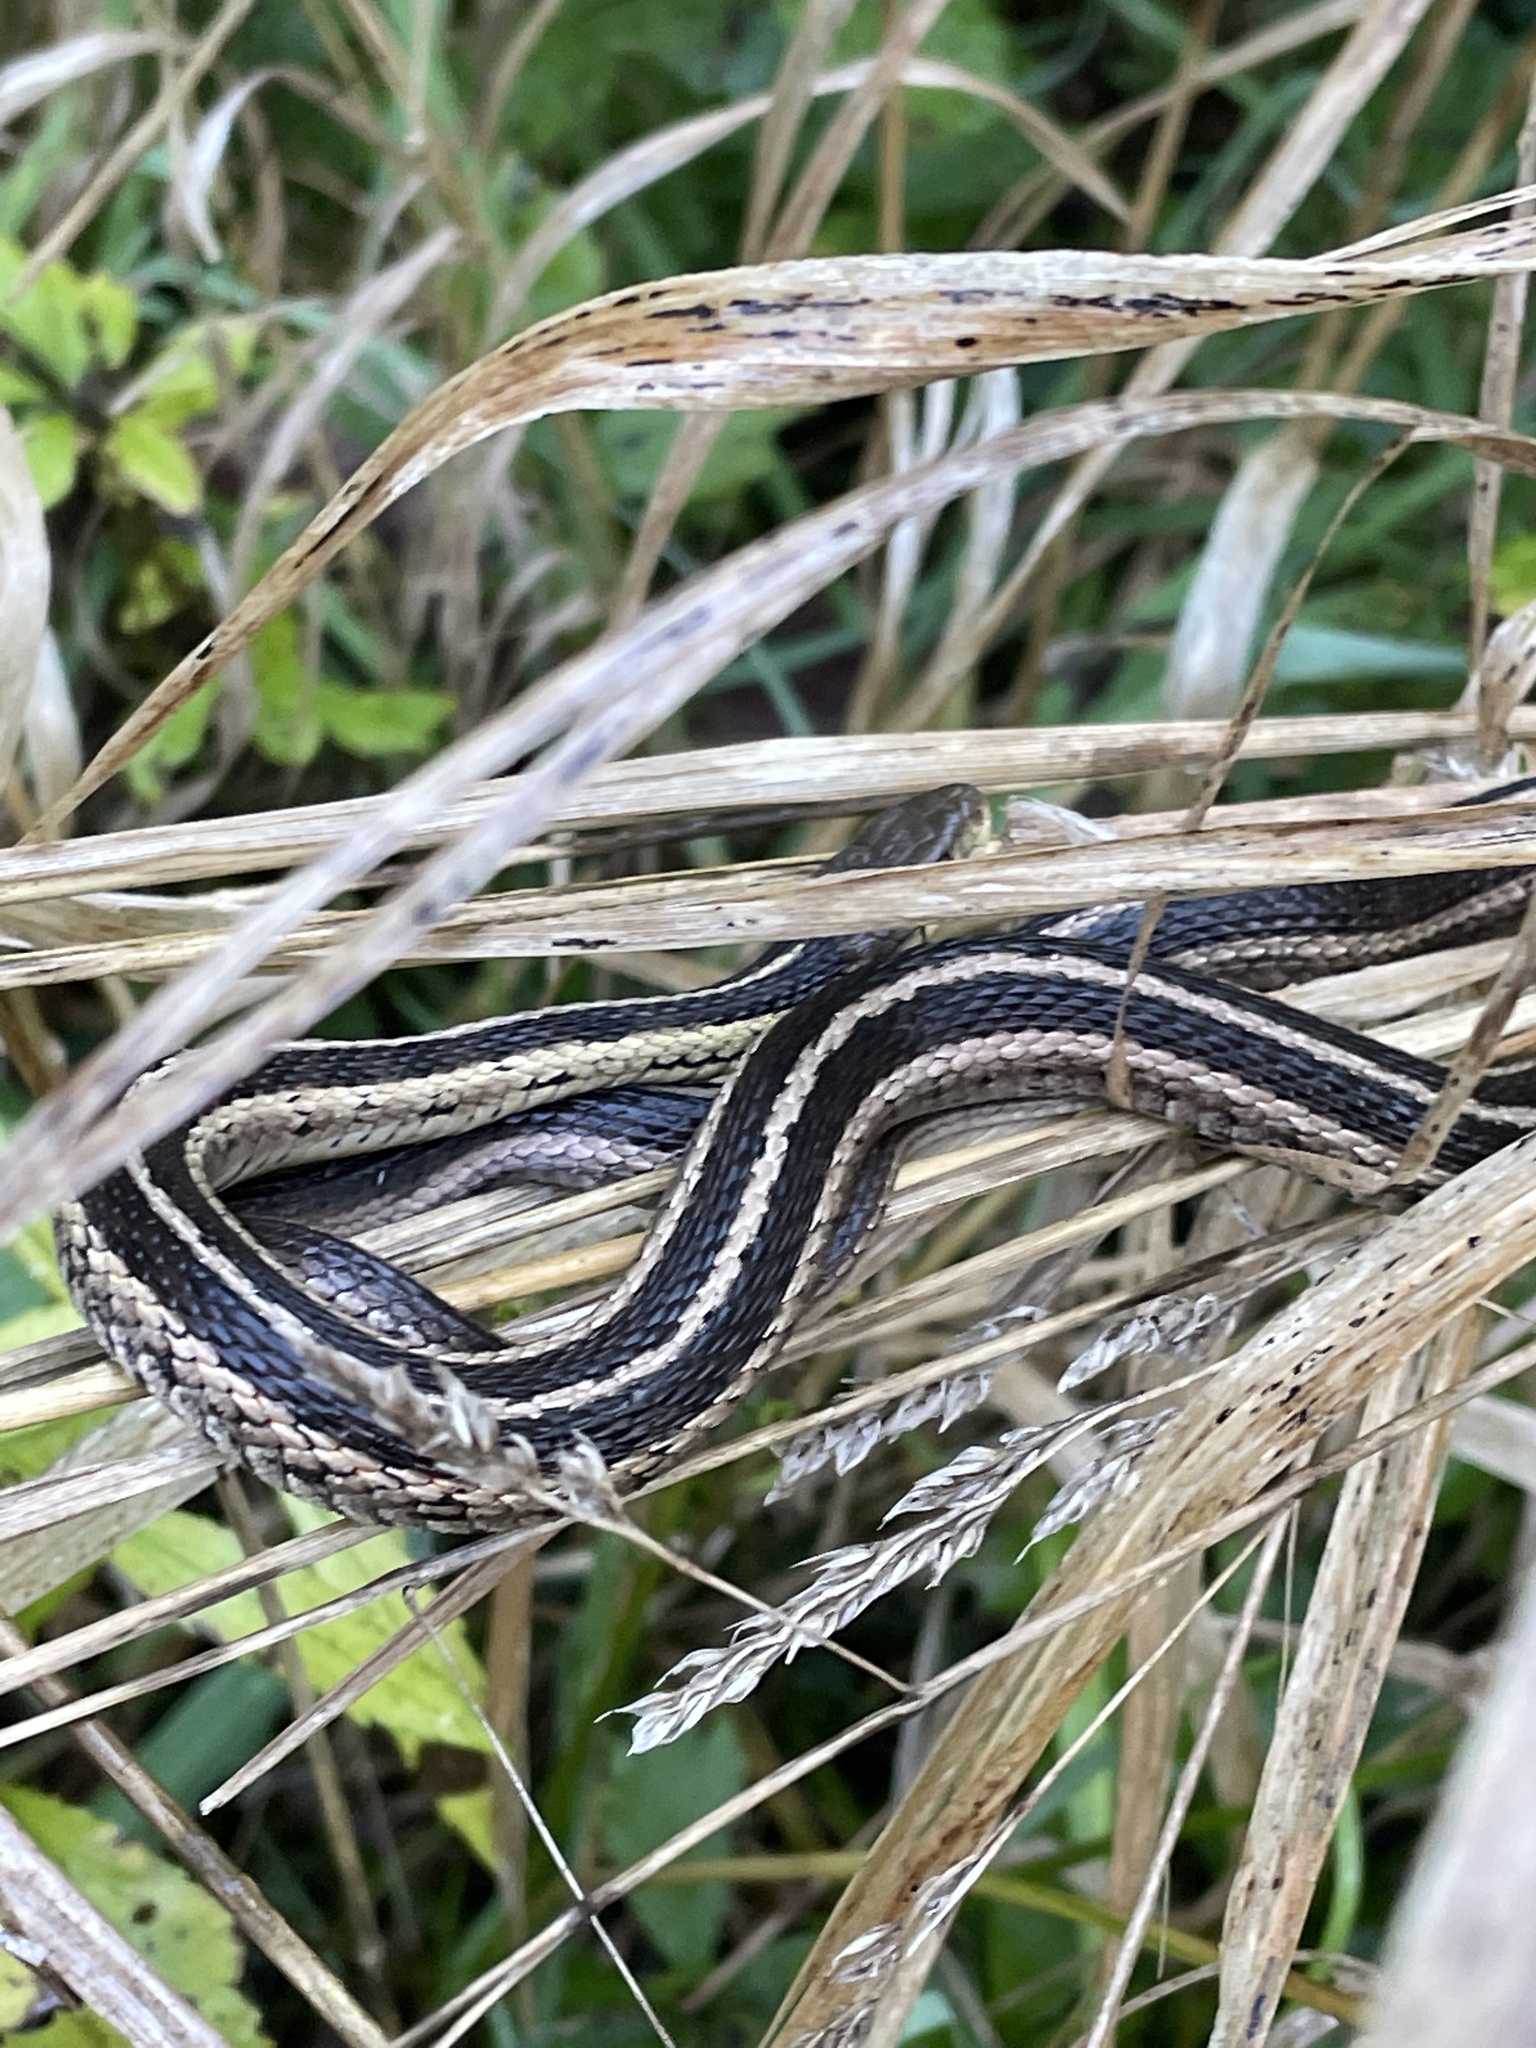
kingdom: Animalia
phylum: Chordata
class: Squamata
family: Colubridae
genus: Thamnophis
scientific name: Thamnophis sirtalis
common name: Common garter snake
